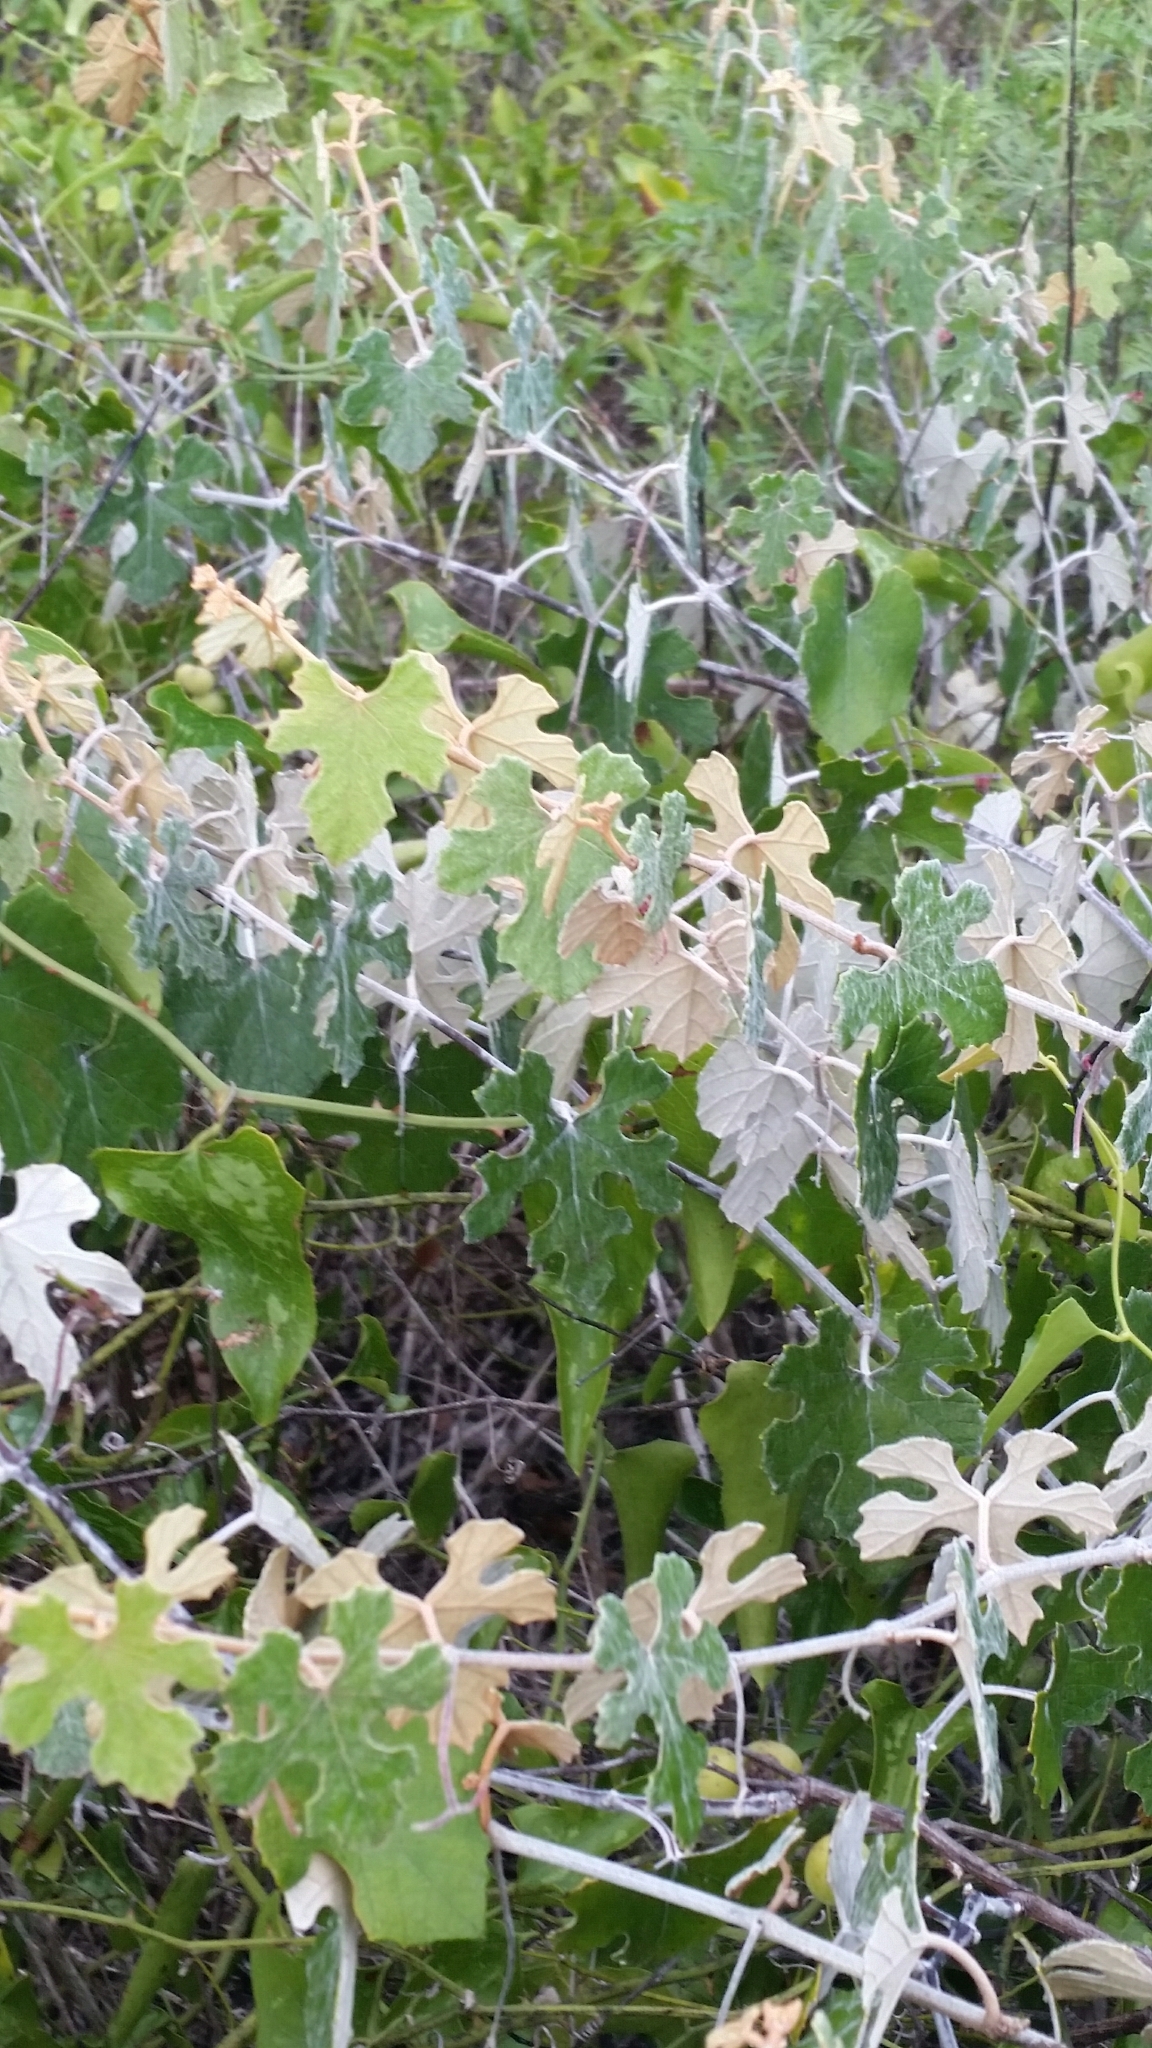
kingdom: Plantae
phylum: Tracheophyta
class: Magnoliopsida
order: Vitales
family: Vitaceae
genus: Vitis
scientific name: Vitis shuttleworthii
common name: Caloosa grape
